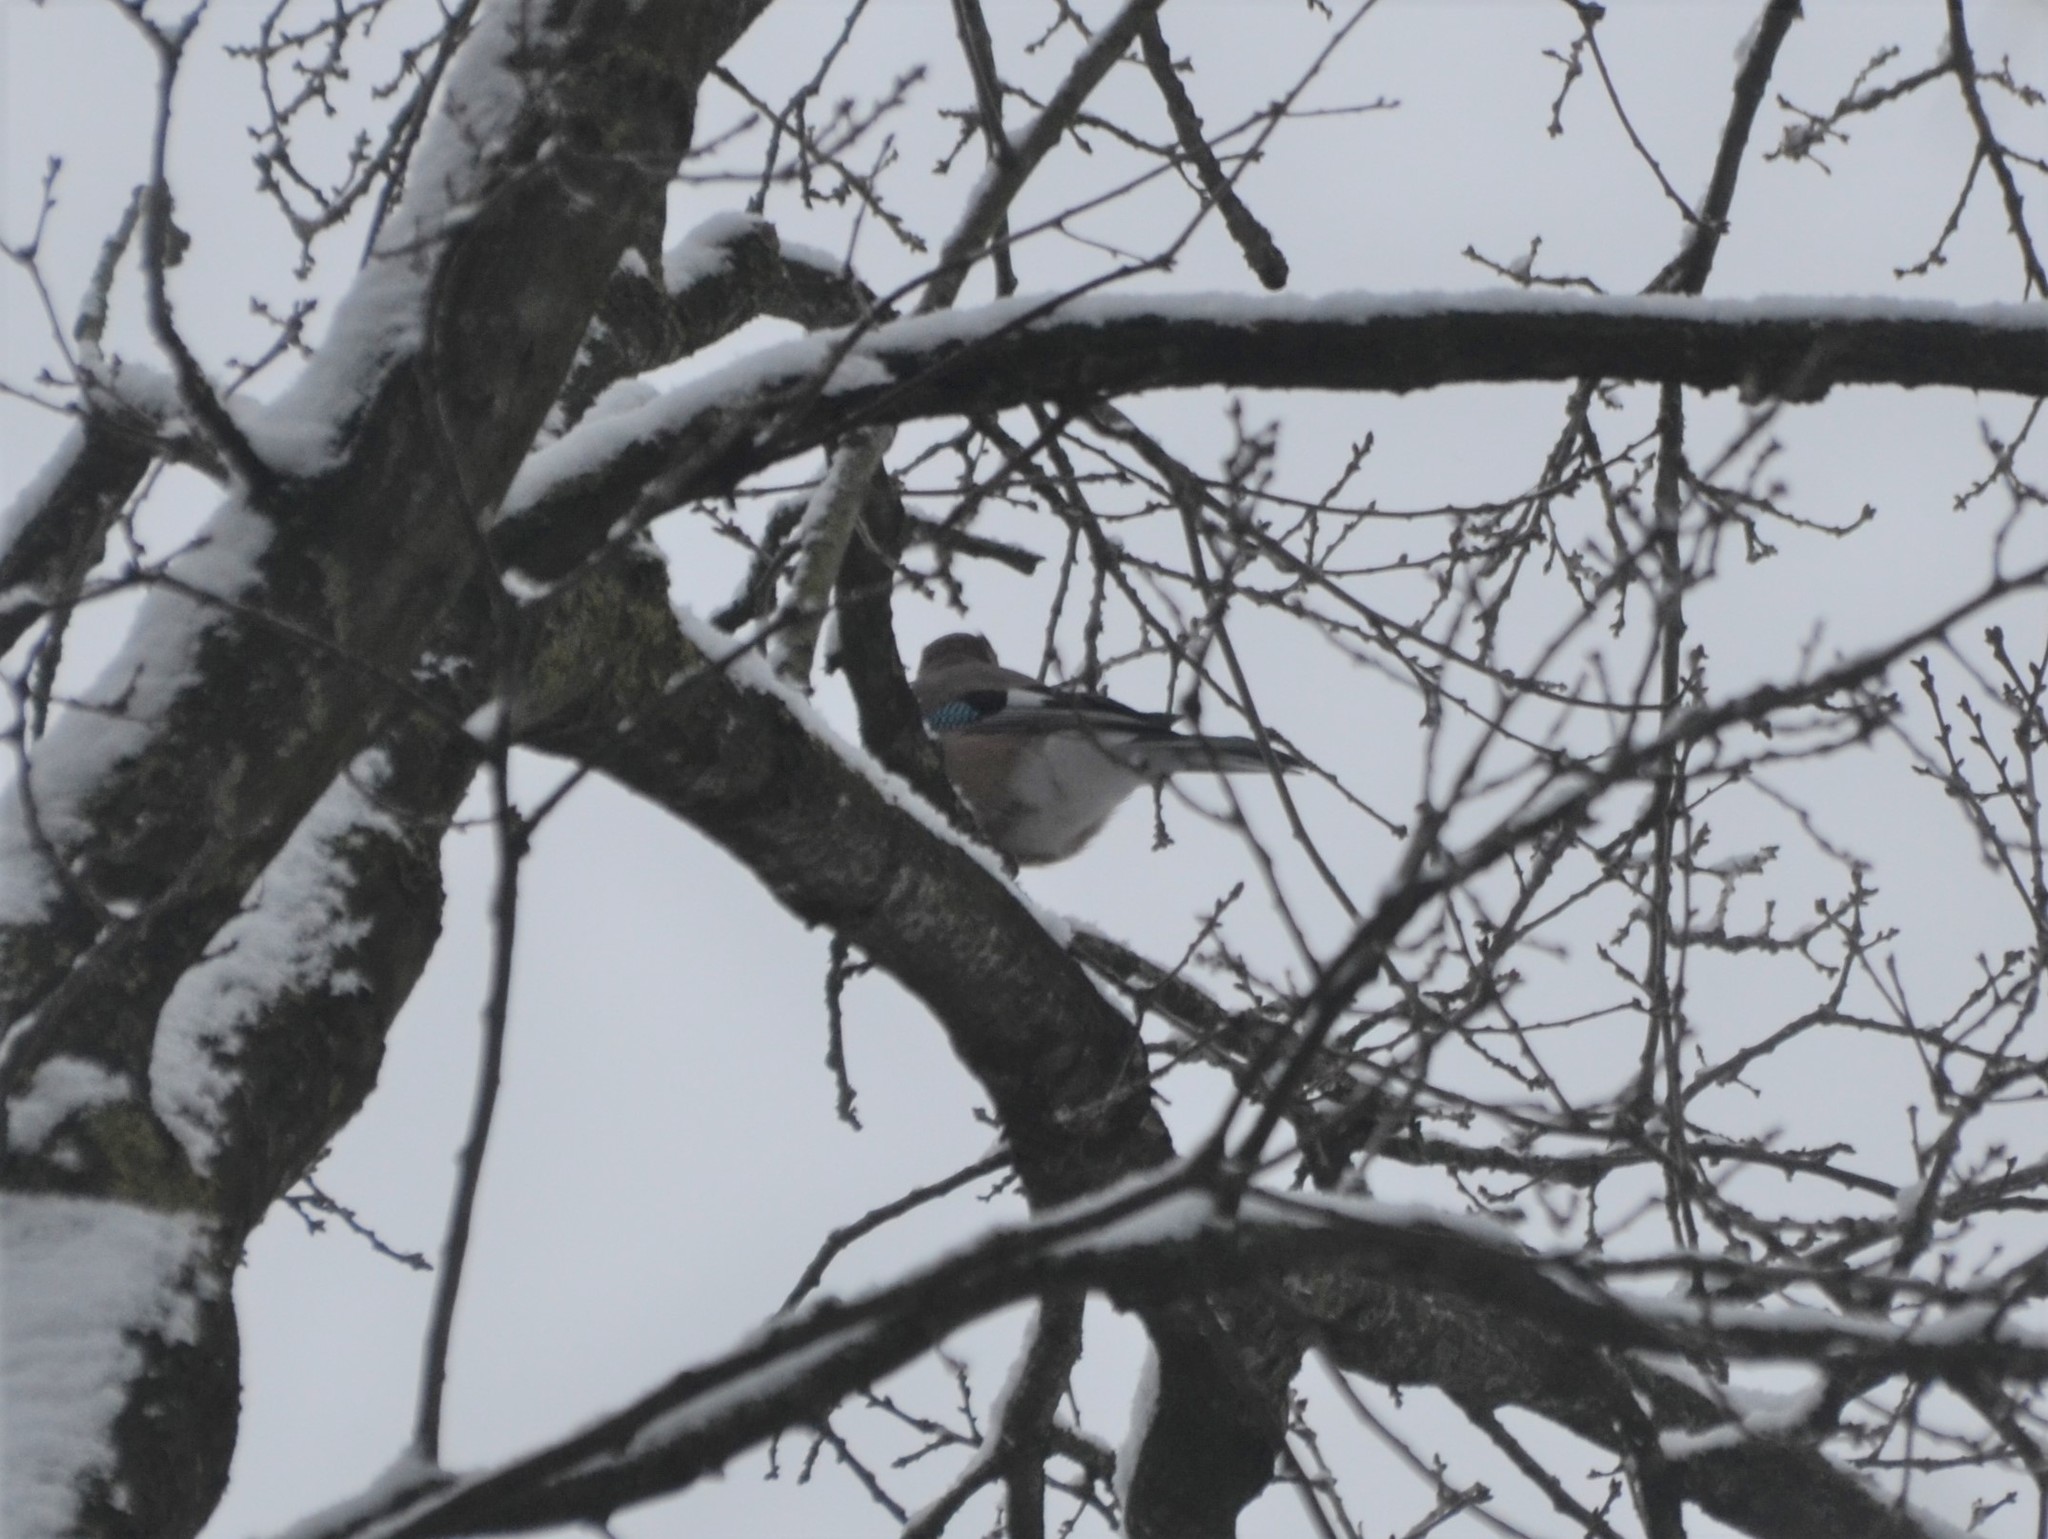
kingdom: Animalia
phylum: Chordata
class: Aves
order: Passeriformes
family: Corvidae
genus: Garrulus
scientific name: Garrulus glandarius
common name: Eurasian jay
